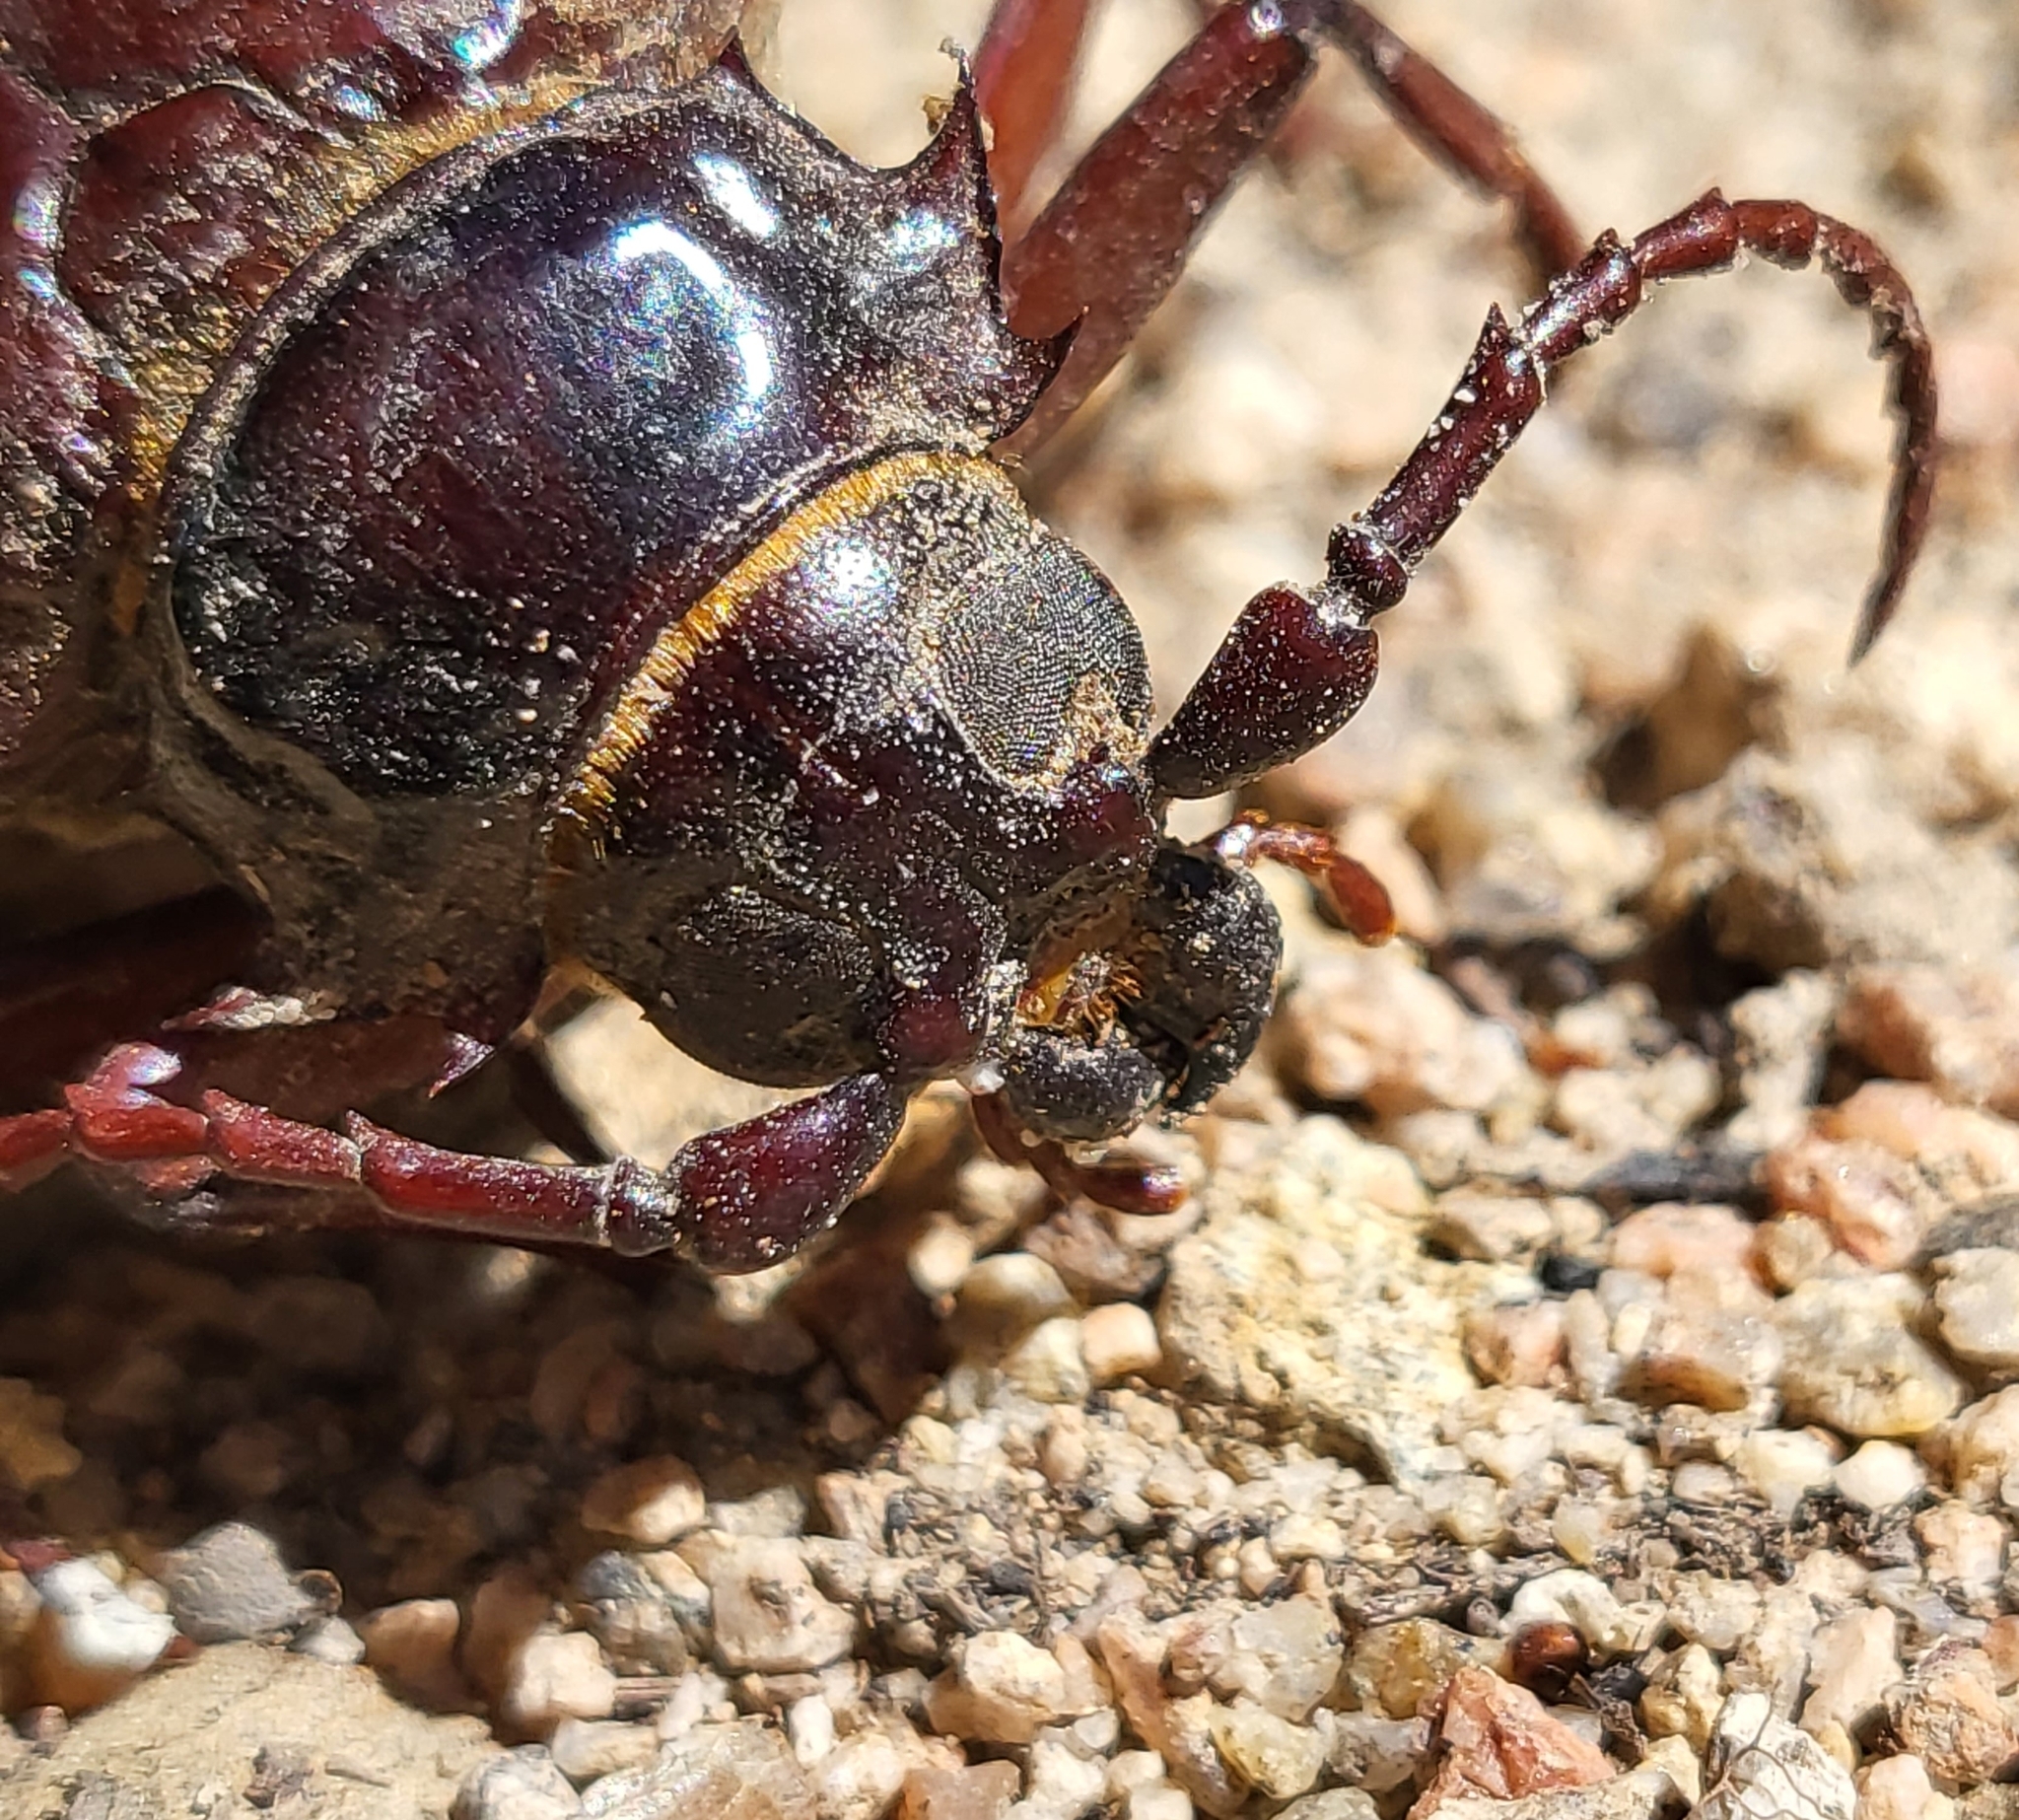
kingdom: Animalia
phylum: Arthropoda
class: Insecta
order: Coleoptera
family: Cerambycidae
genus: Prionus
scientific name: Prionus californicus
